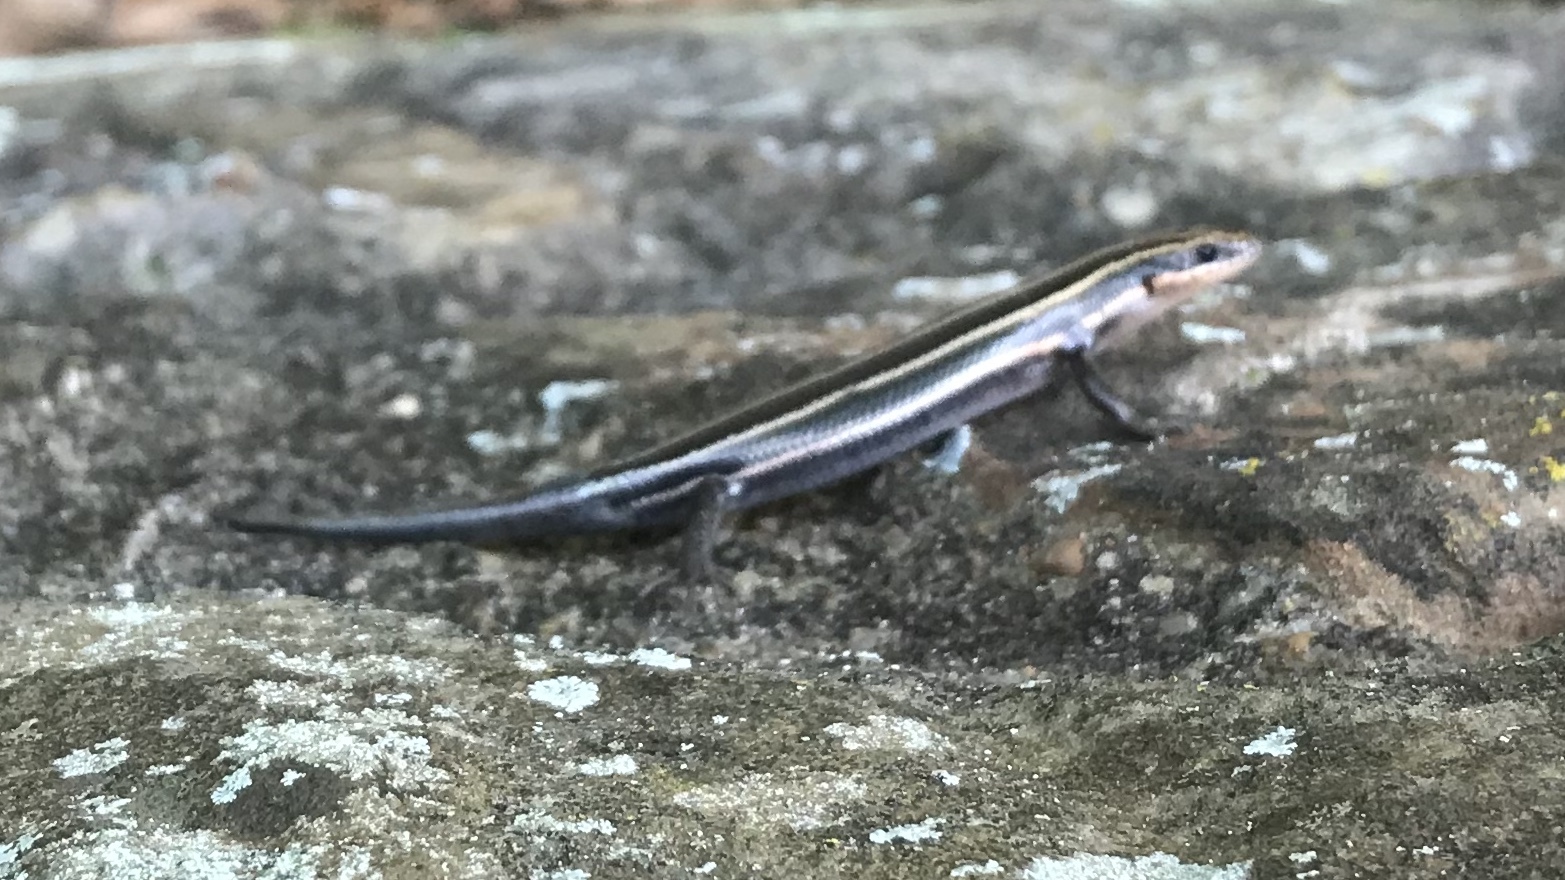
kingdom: Animalia
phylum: Chordata
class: Squamata
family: Scincidae
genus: Plestiodon
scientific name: Plestiodon
